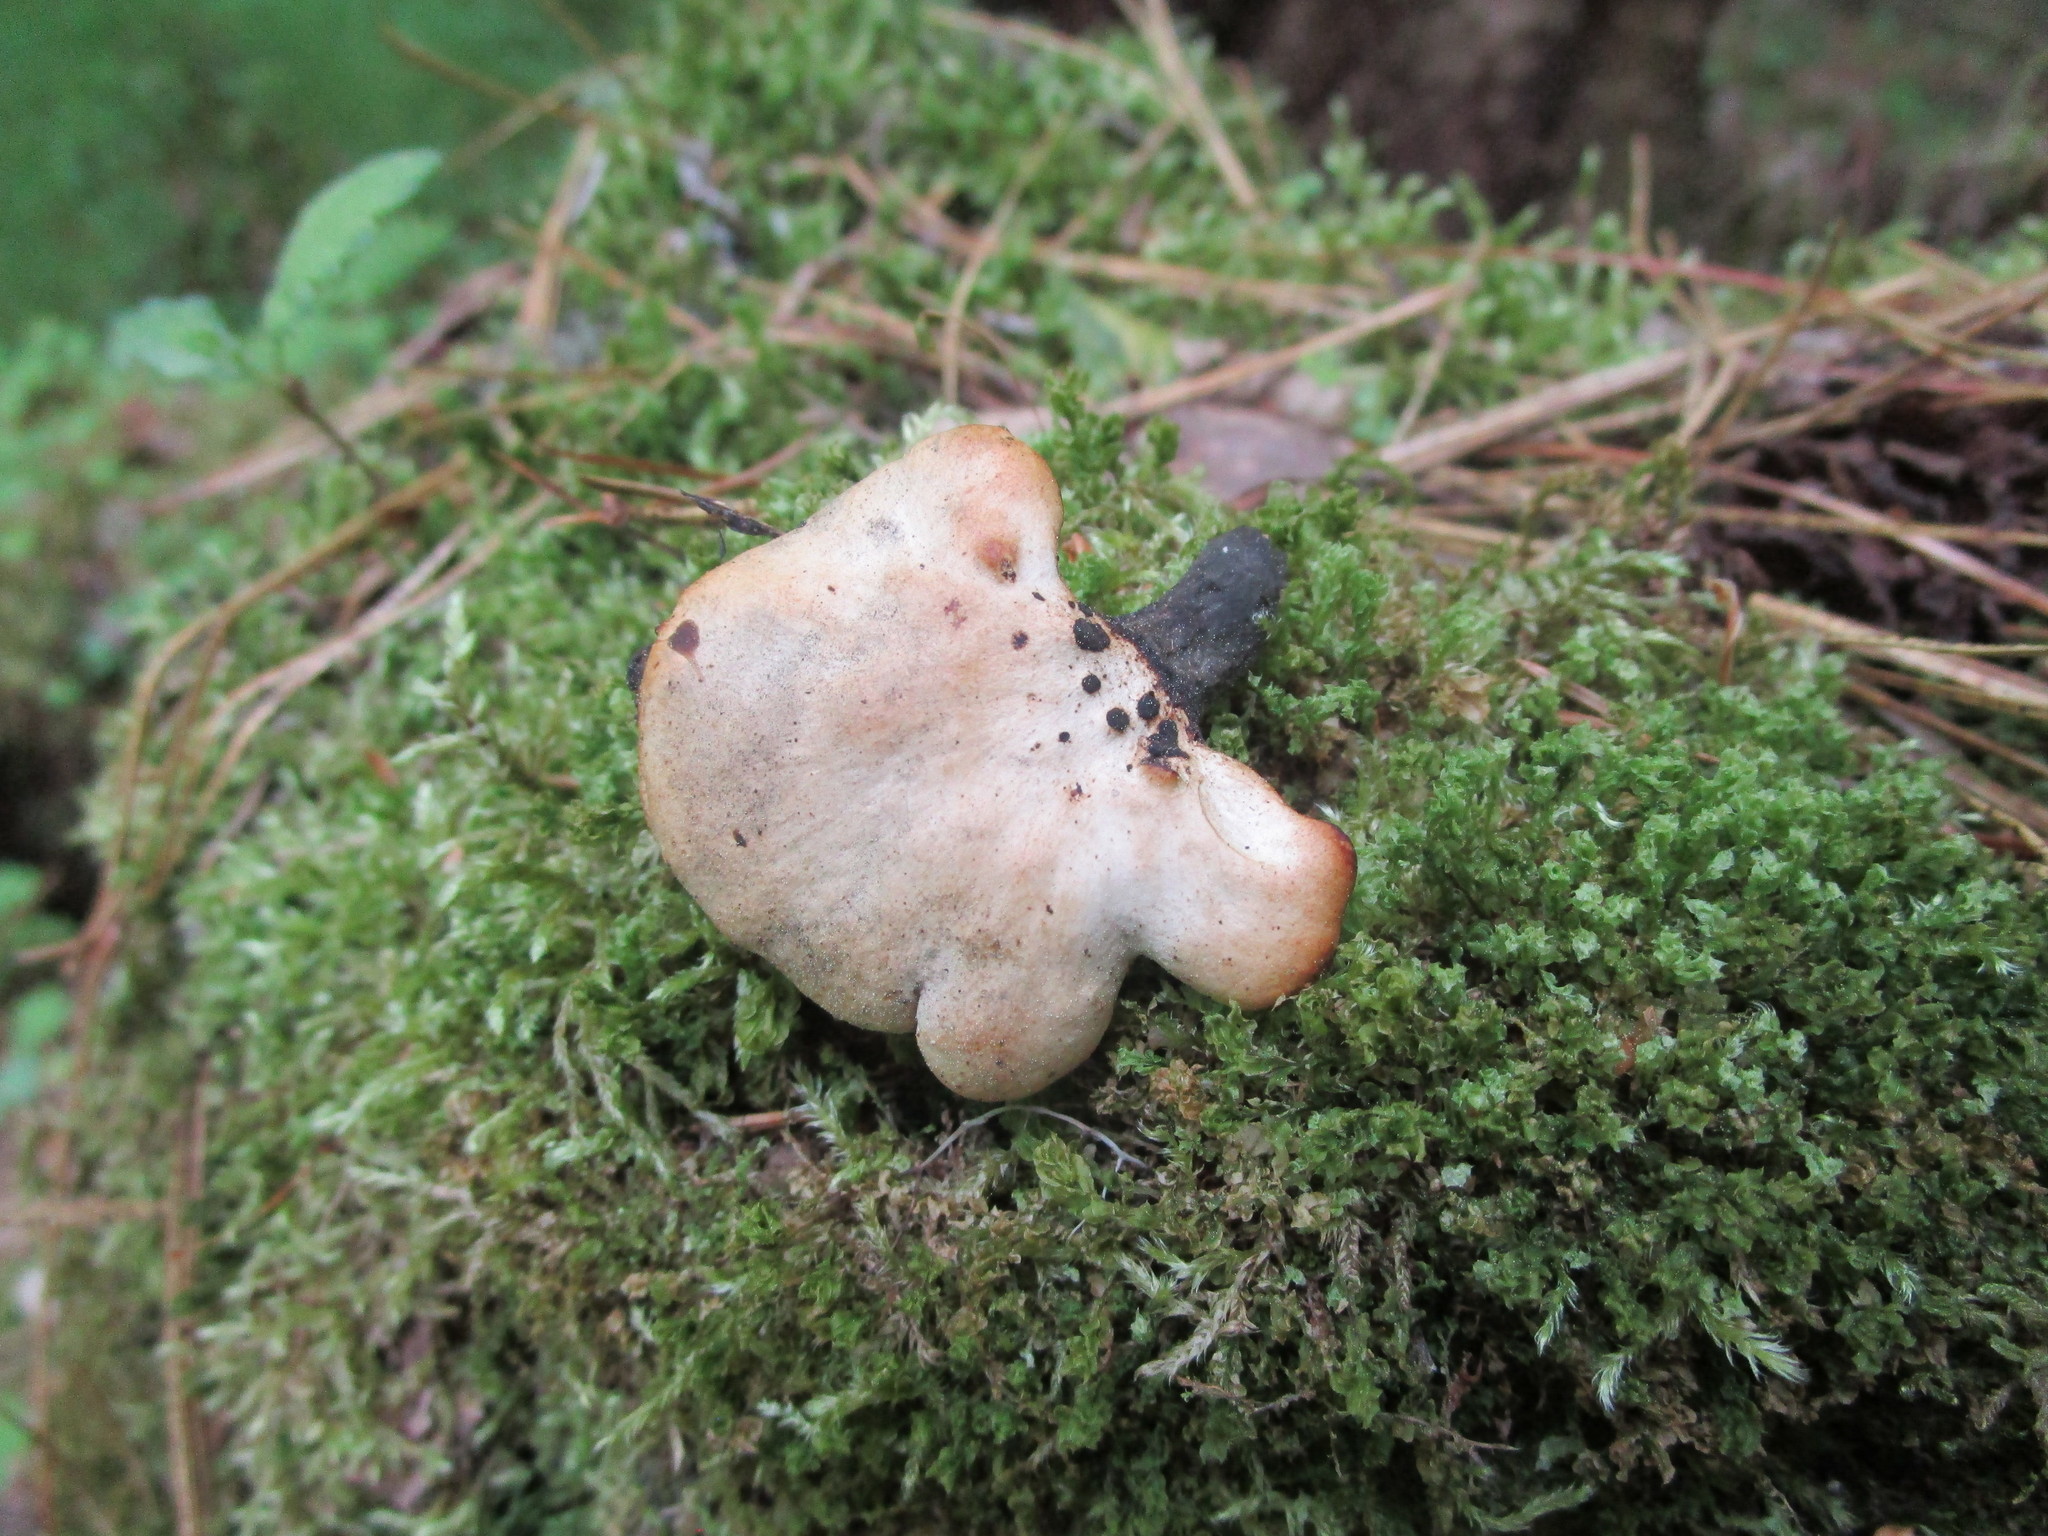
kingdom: Fungi
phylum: Basidiomycota
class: Agaricomycetes
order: Polyporales
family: Polyporaceae
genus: Cerioporus
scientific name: Cerioporus varius
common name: Elegant polypore
